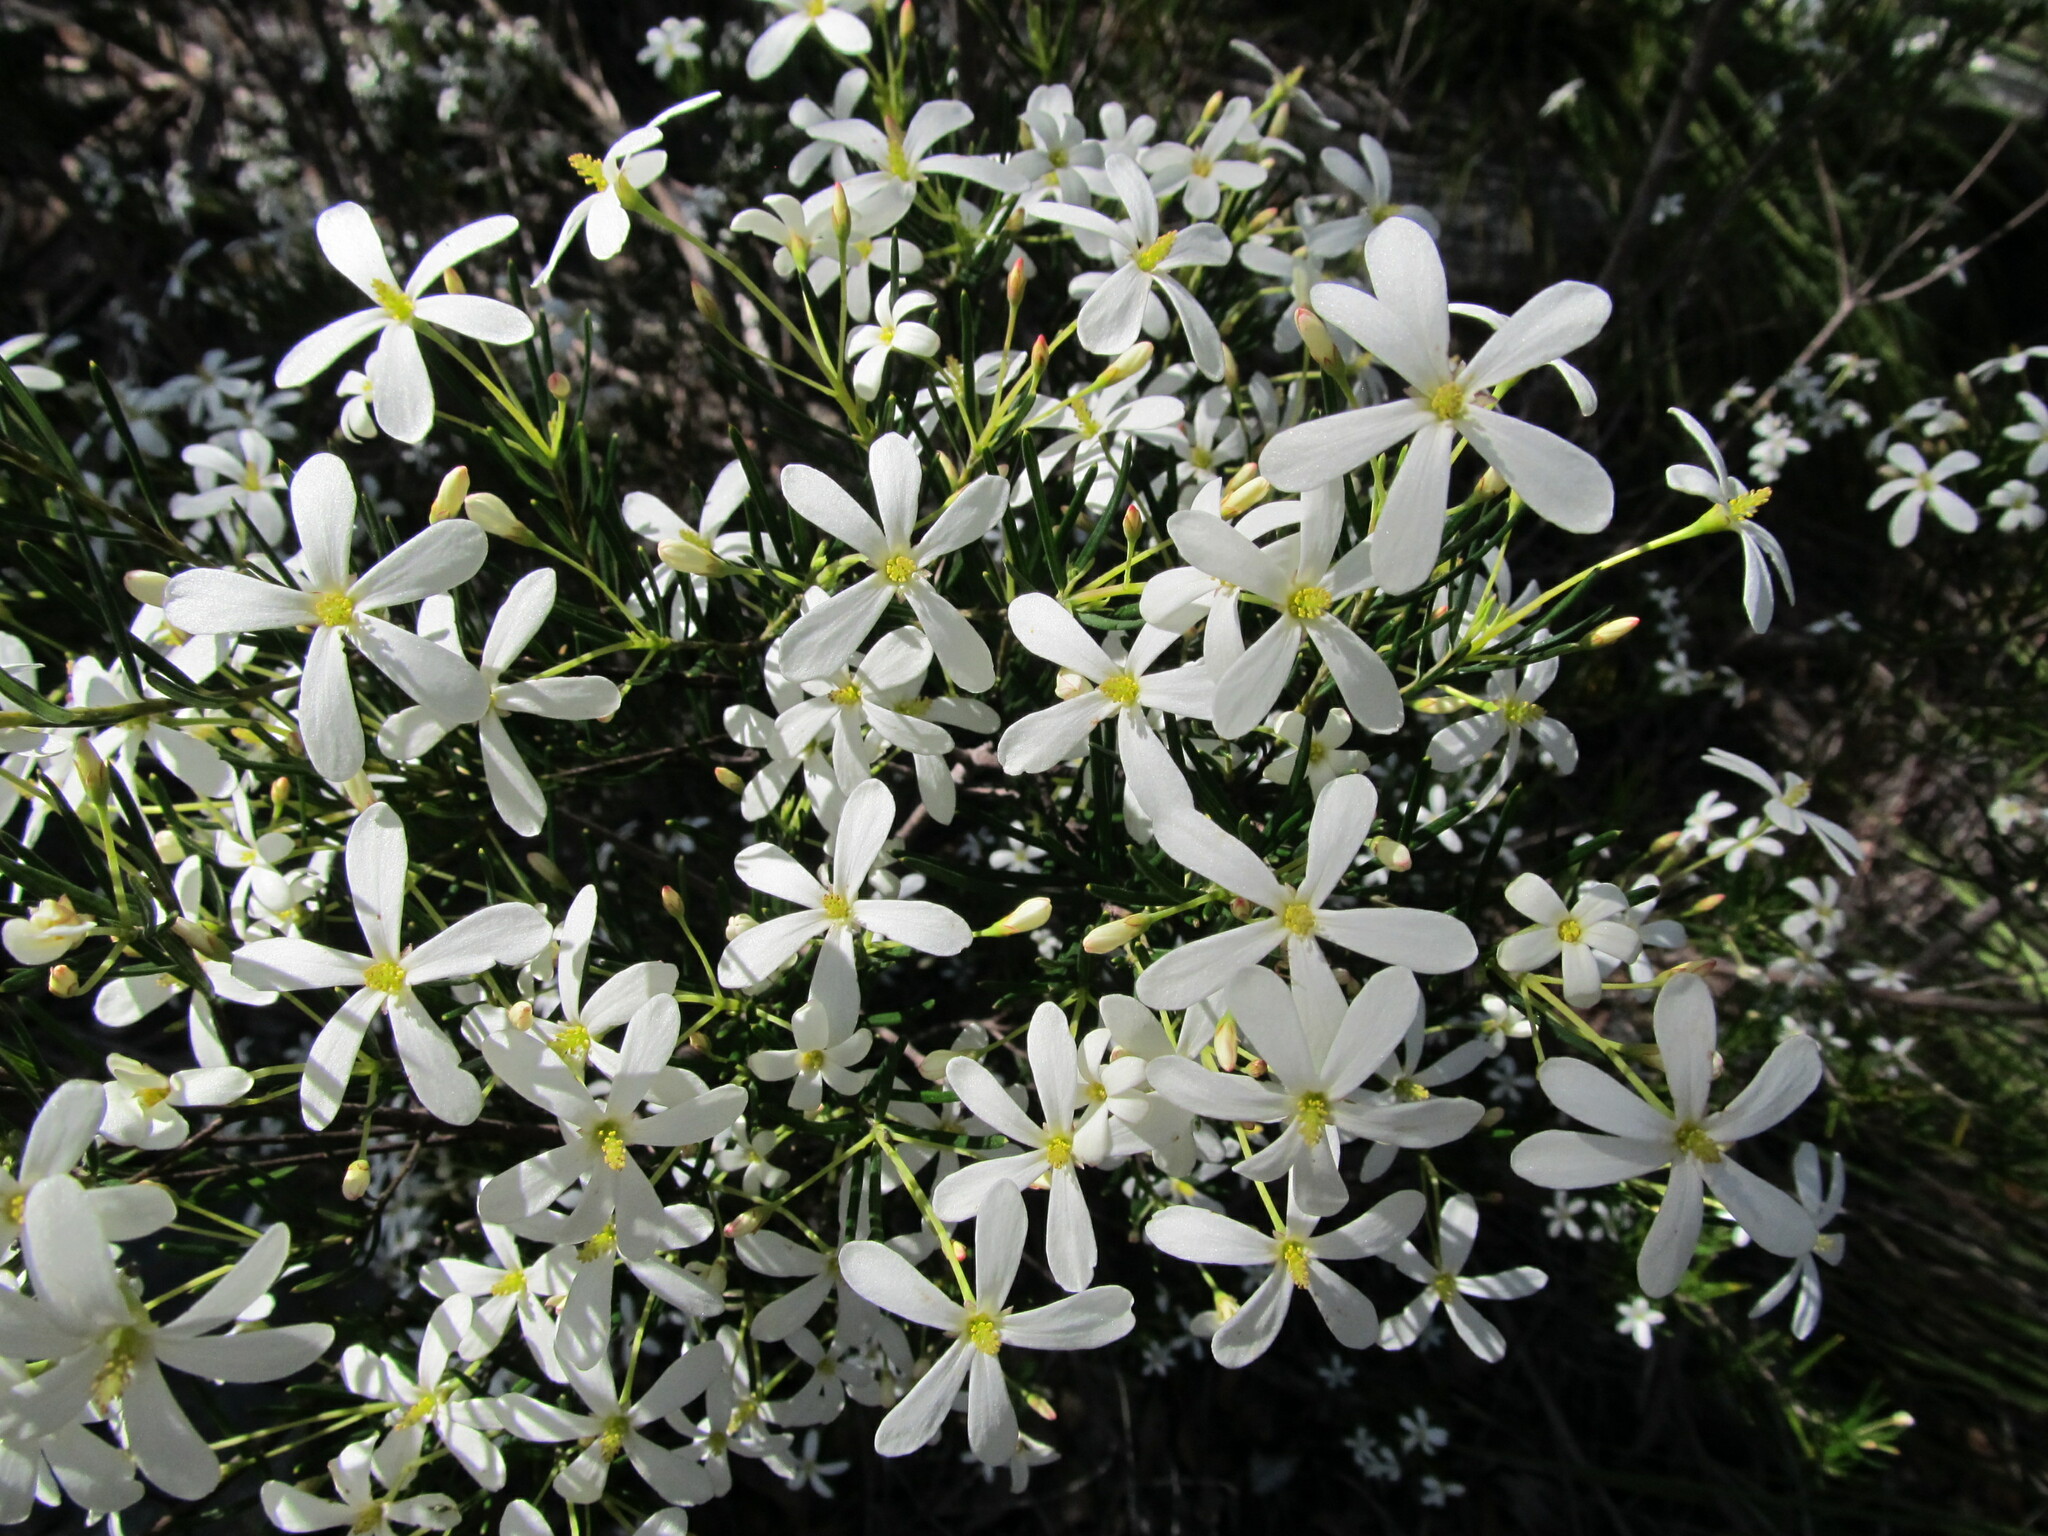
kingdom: Plantae
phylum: Tracheophyta
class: Magnoliopsida
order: Malpighiales
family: Euphorbiaceae
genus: Ricinocarpos
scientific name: Ricinocarpos pinifolius
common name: Weddingbush
